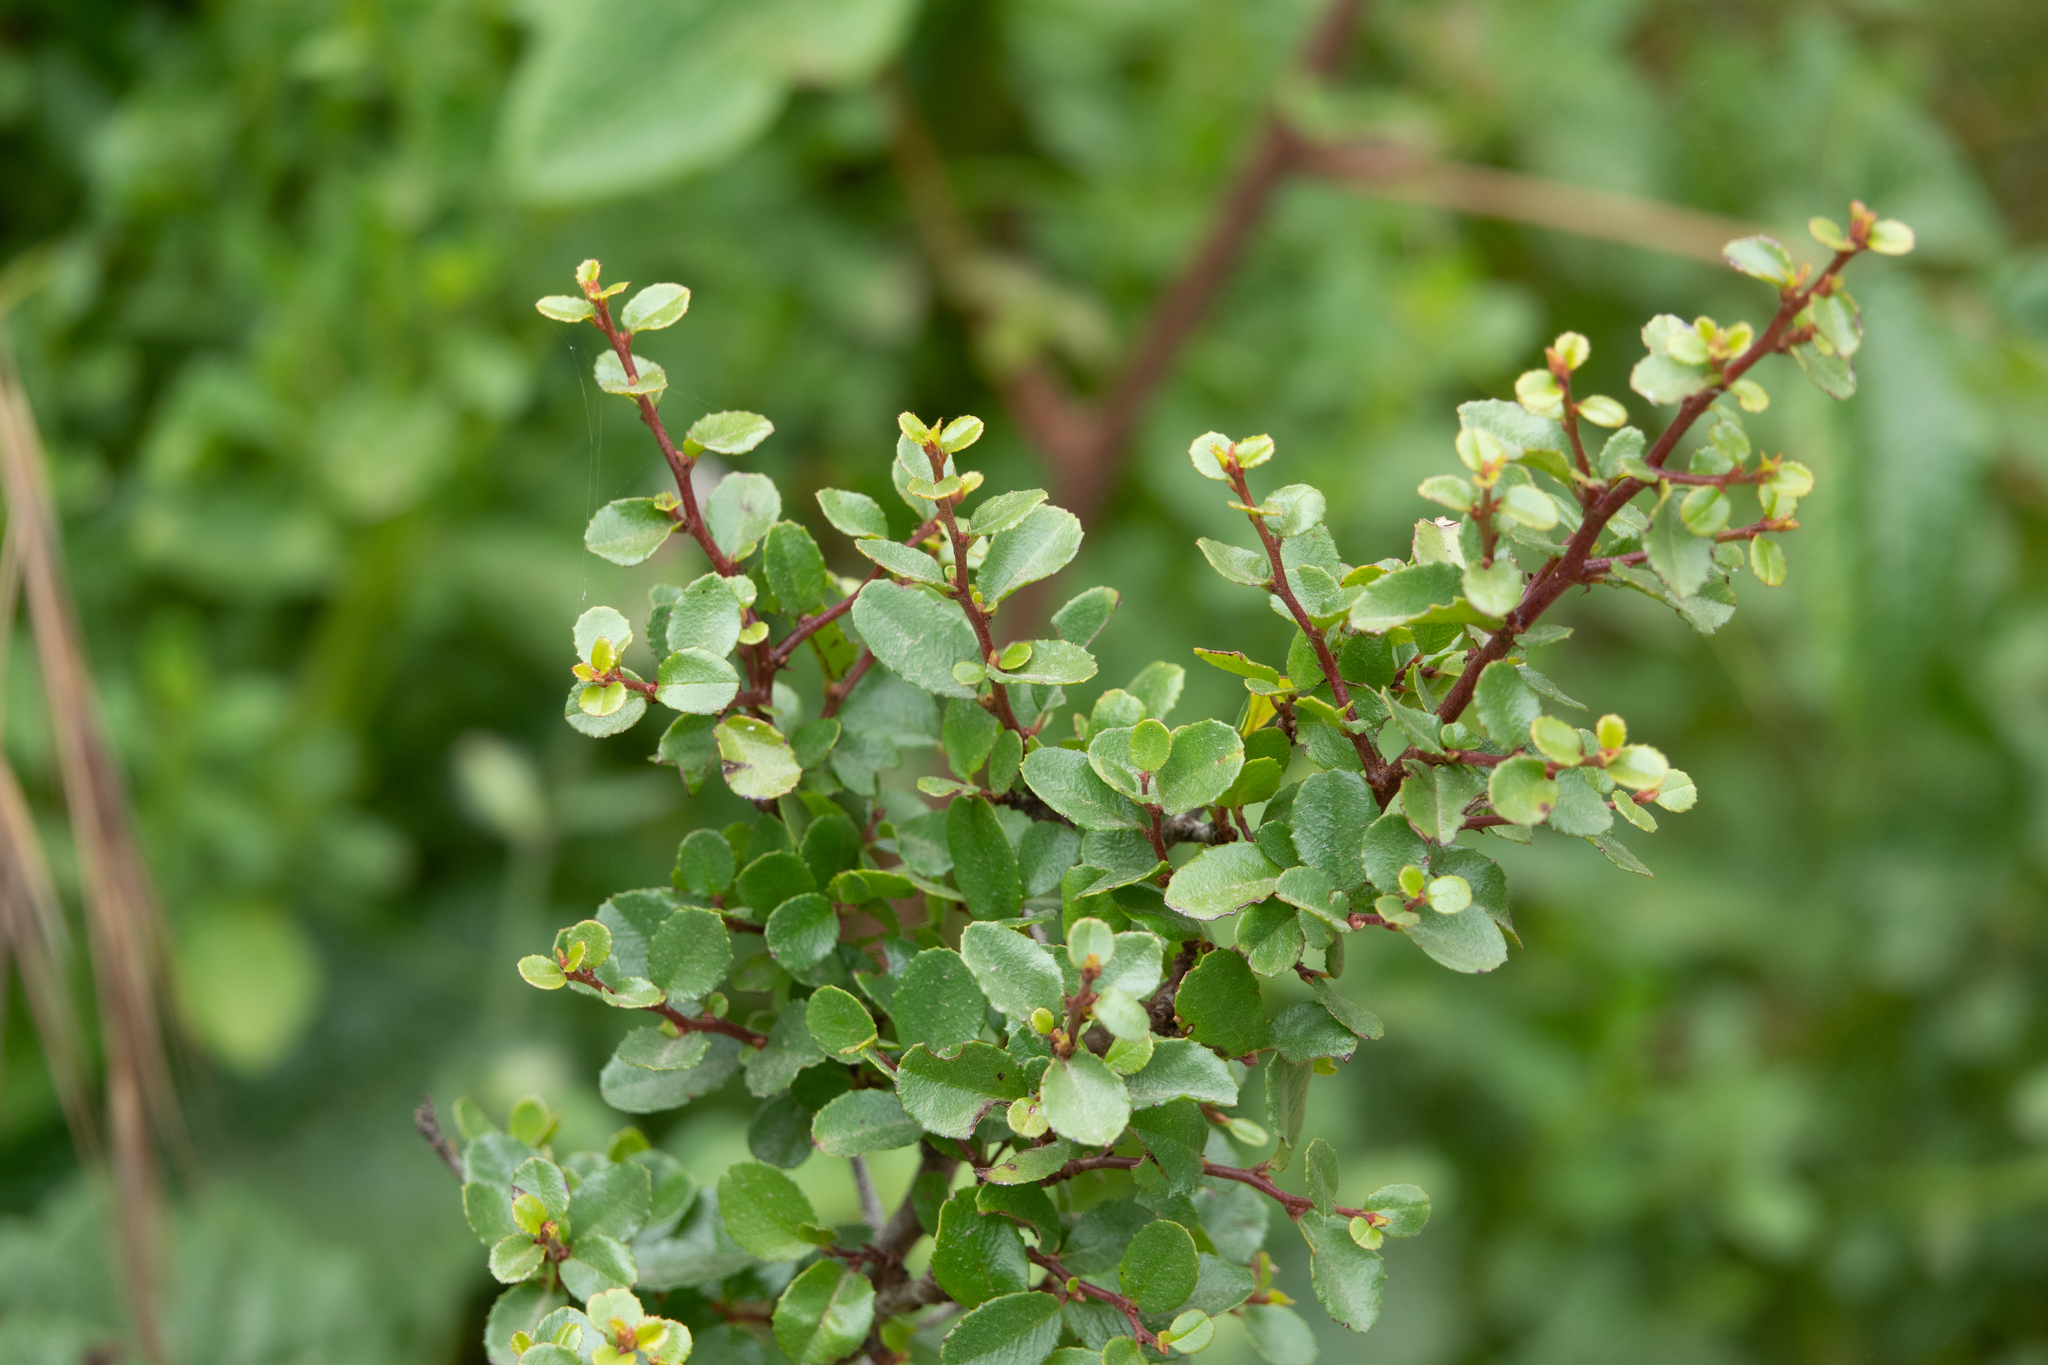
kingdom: Plantae
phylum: Tracheophyta
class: Magnoliopsida
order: Rosales
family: Rhamnaceae
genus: Endotropis
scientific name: Endotropis crocea
